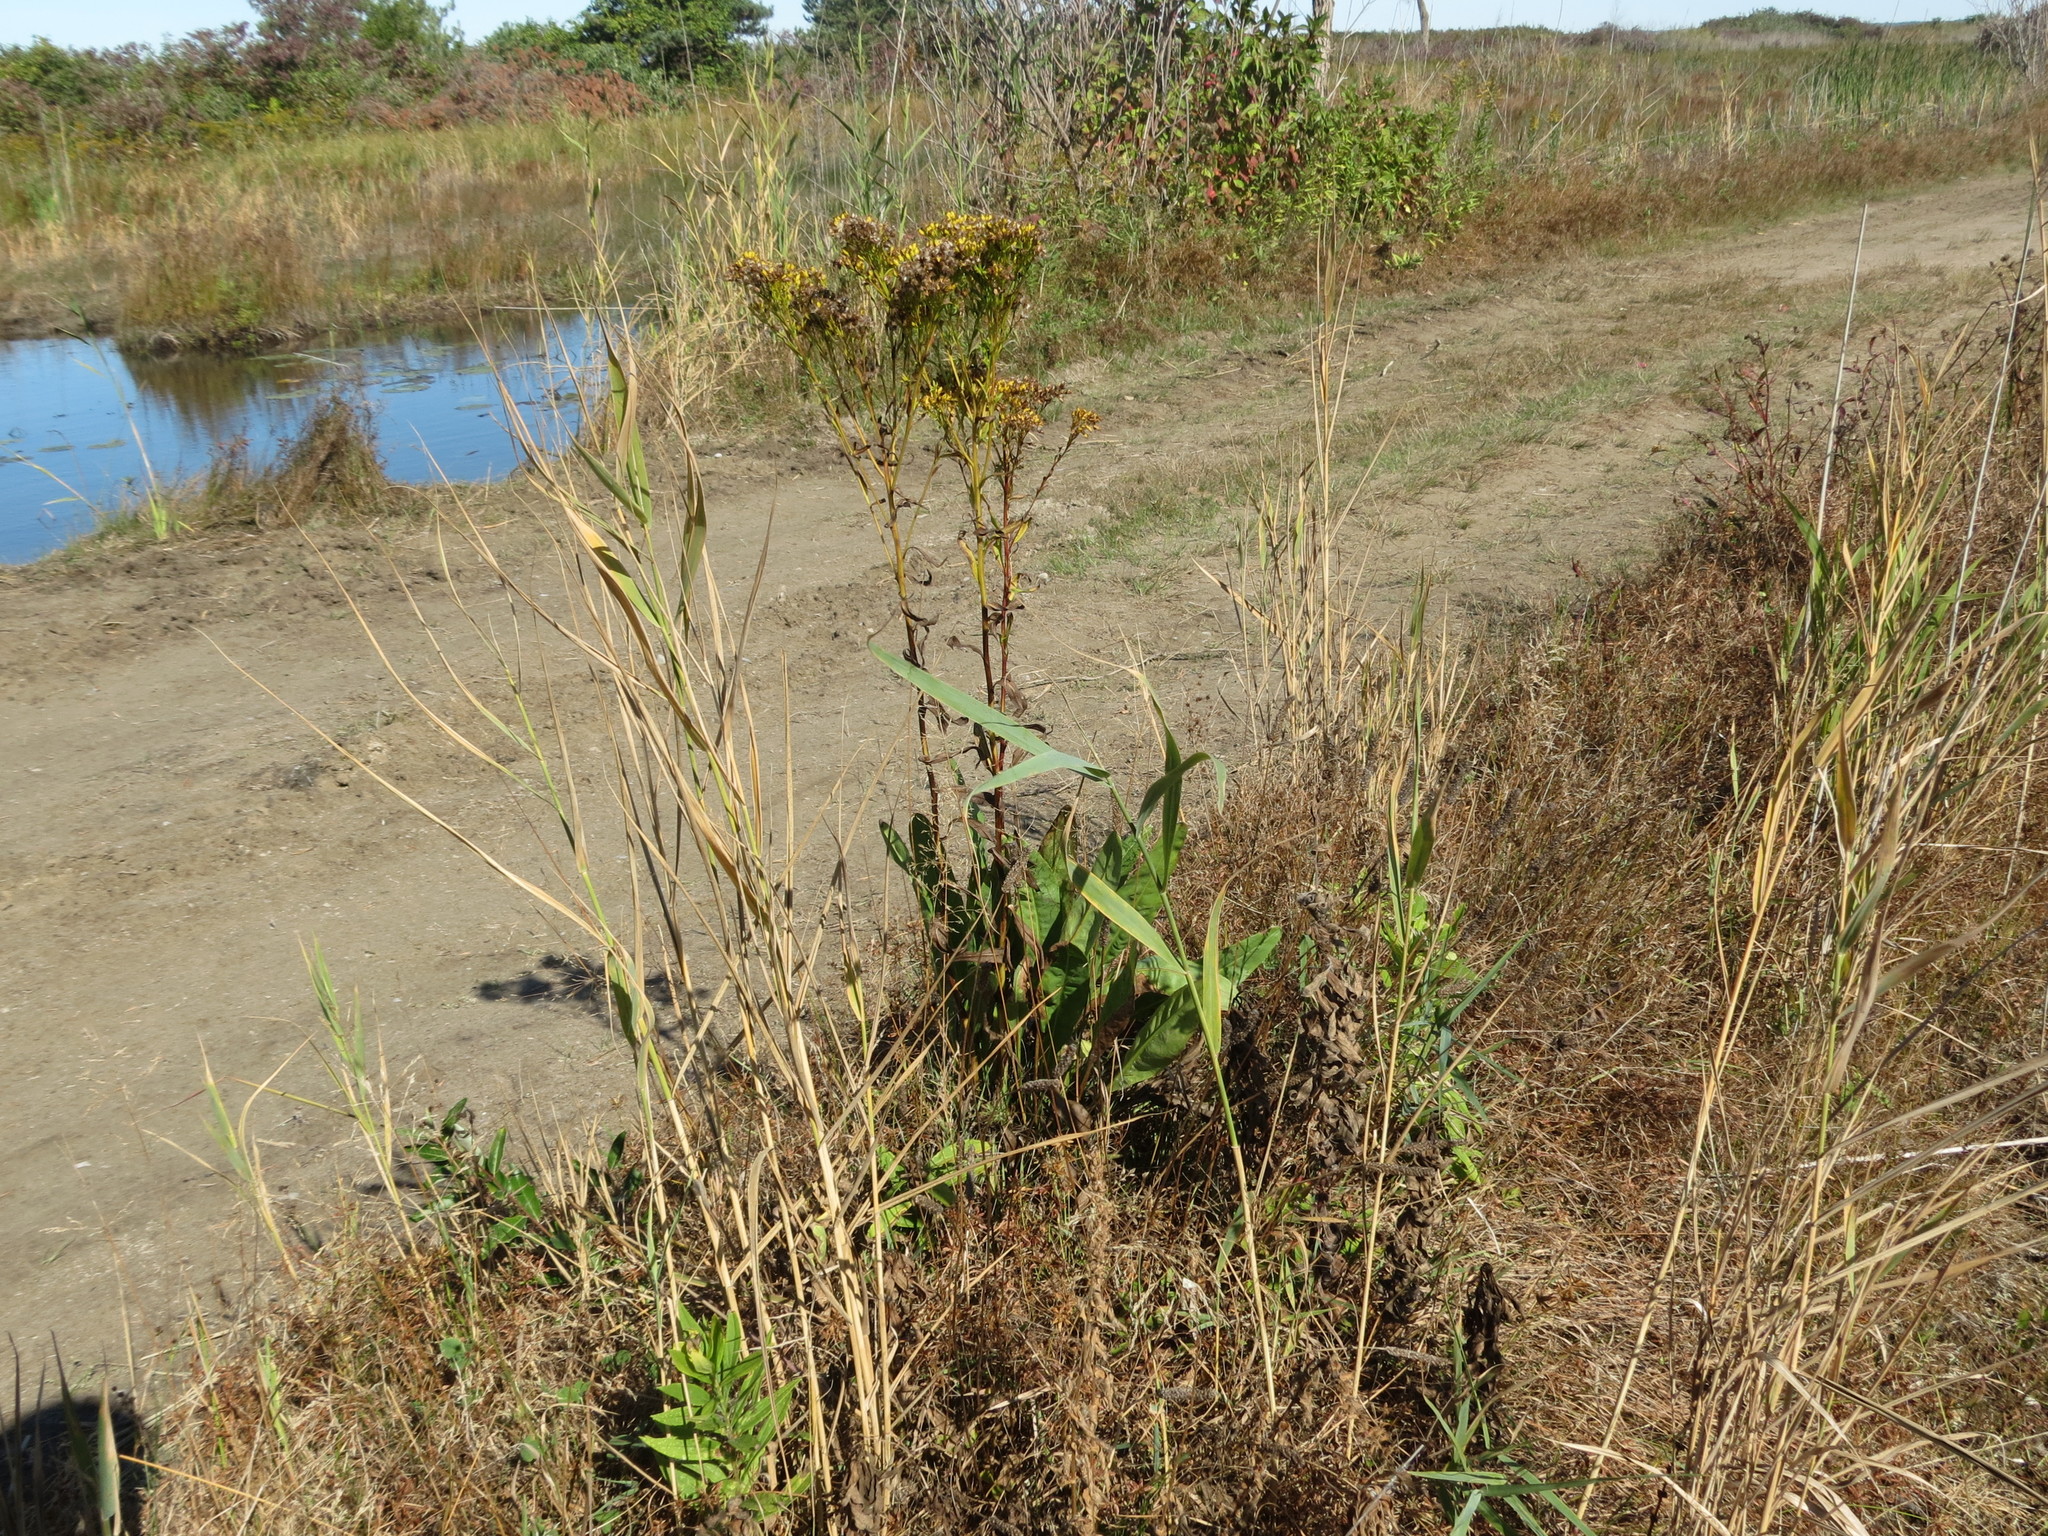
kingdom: Plantae
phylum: Tracheophyta
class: Magnoliopsida
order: Asterales
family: Asteraceae
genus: Solidago
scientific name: Solidago ohioensis
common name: Ohio goldenrod
